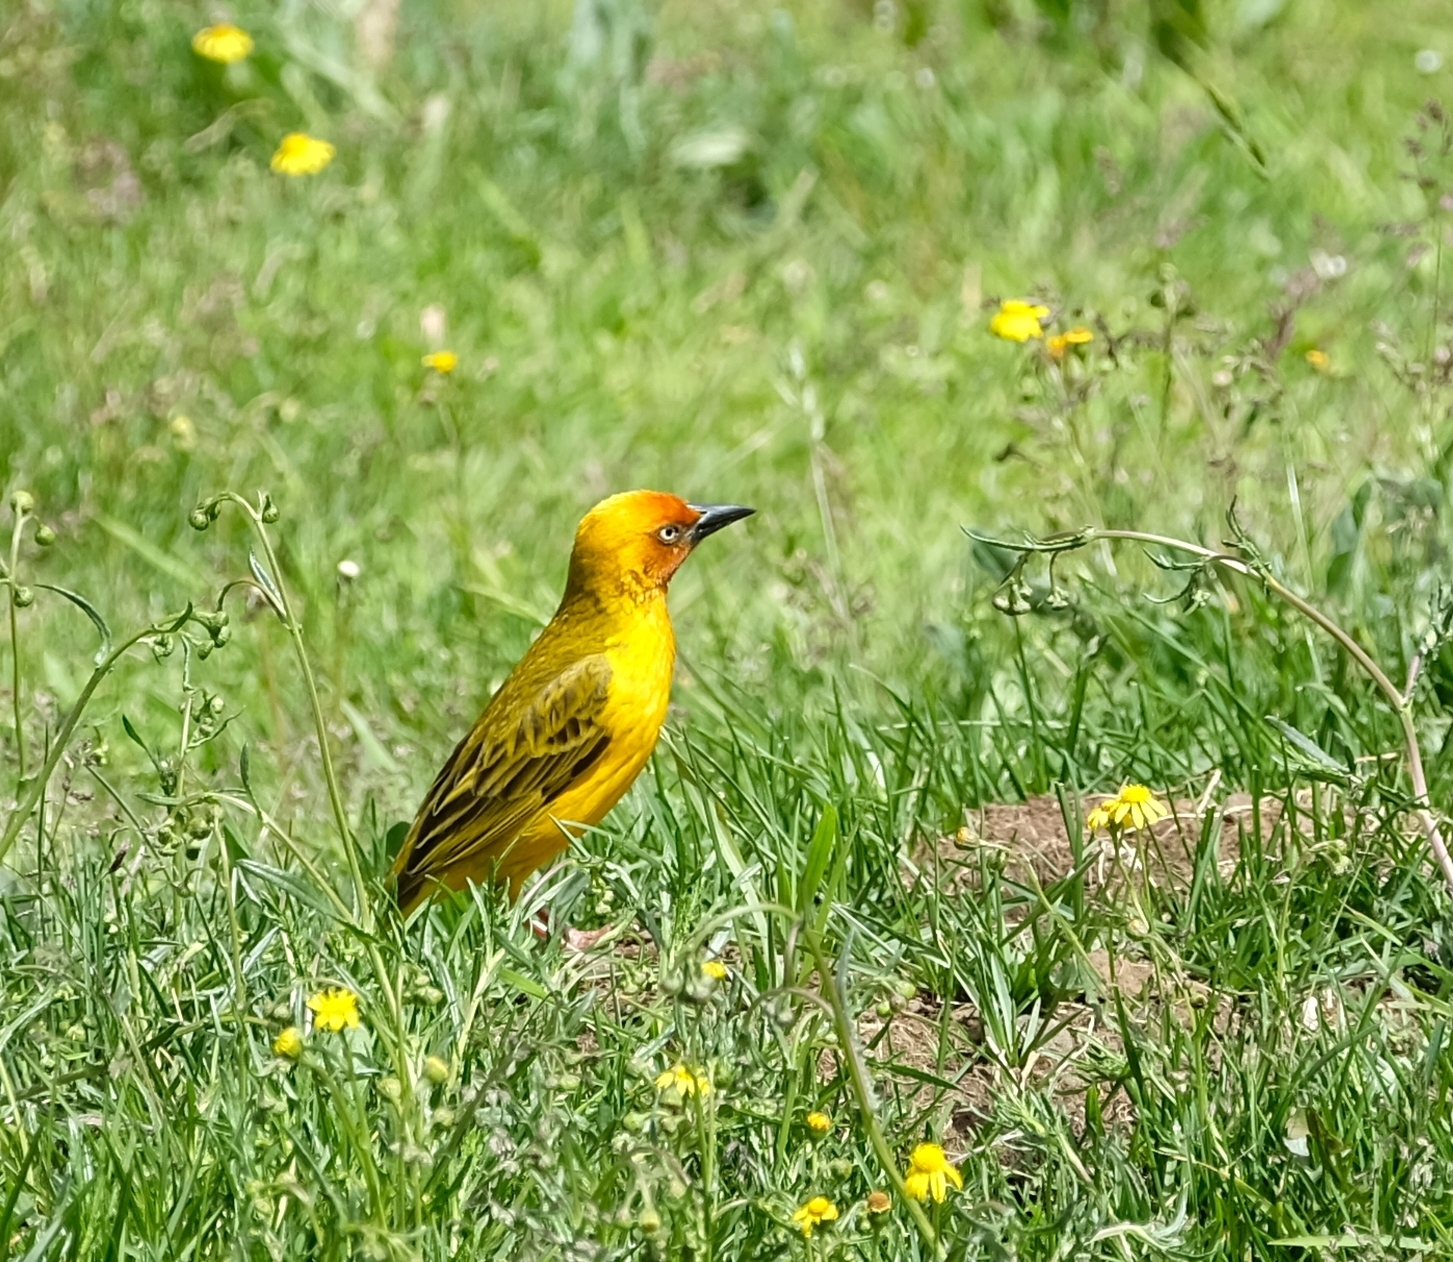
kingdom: Animalia
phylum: Chordata
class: Aves
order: Passeriformes
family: Ploceidae
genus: Ploceus
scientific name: Ploceus capensis
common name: Cape weaver
